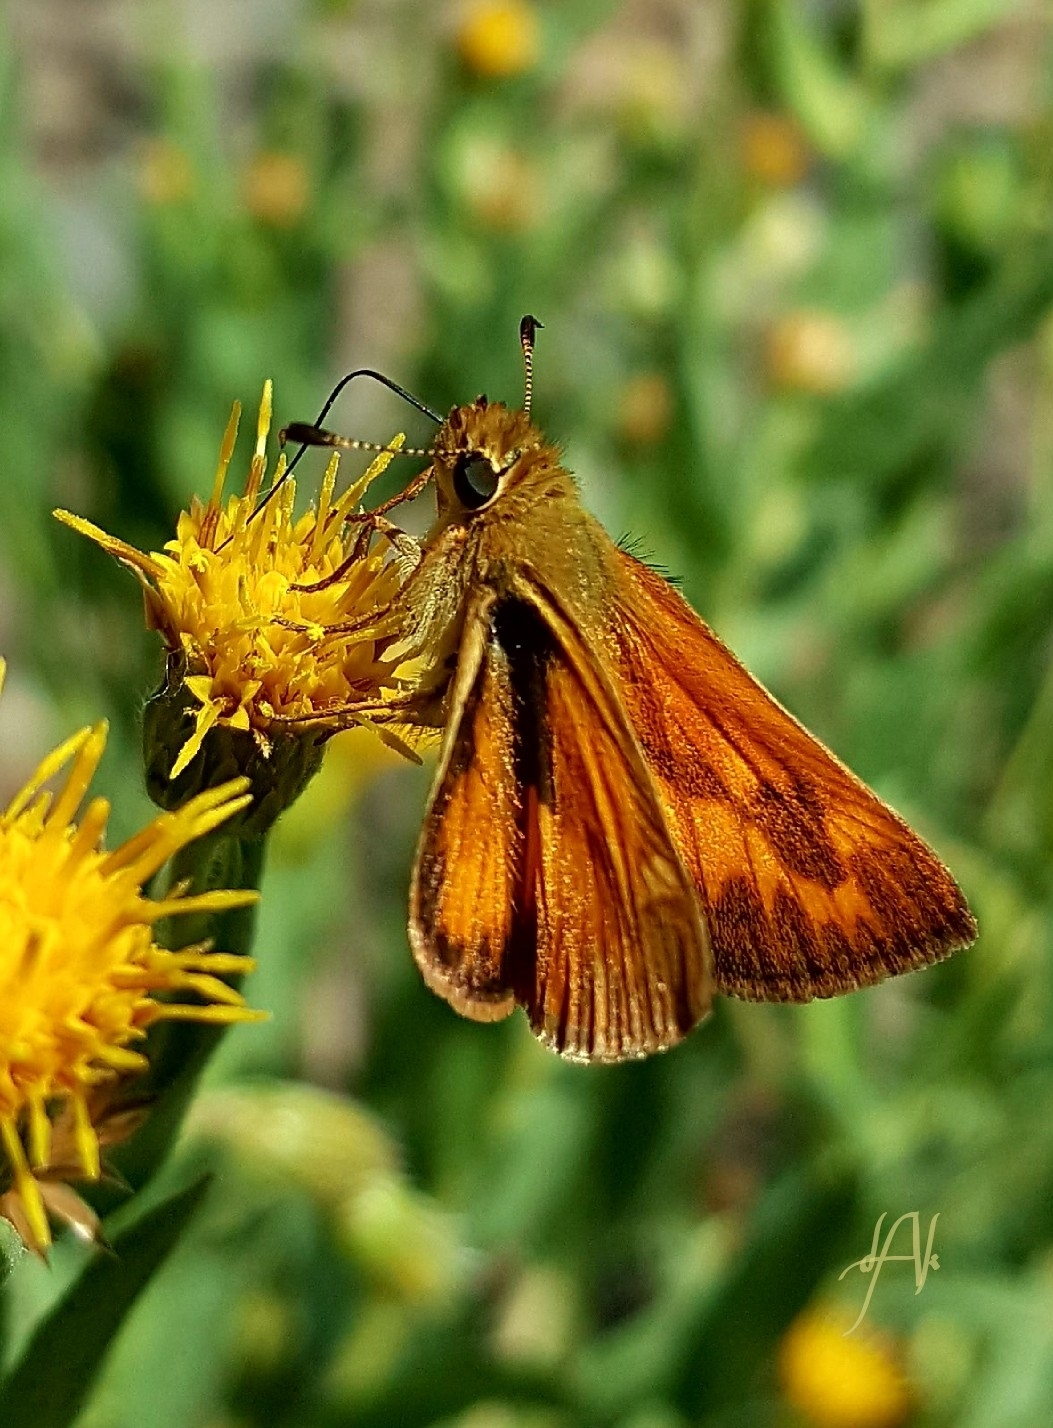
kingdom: Animalia
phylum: Arthropoda
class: Insecta
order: Lepidoptera
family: Hesperiidae
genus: Ochlodes
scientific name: Ochlodes sylvanoides
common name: Woodland skipper
